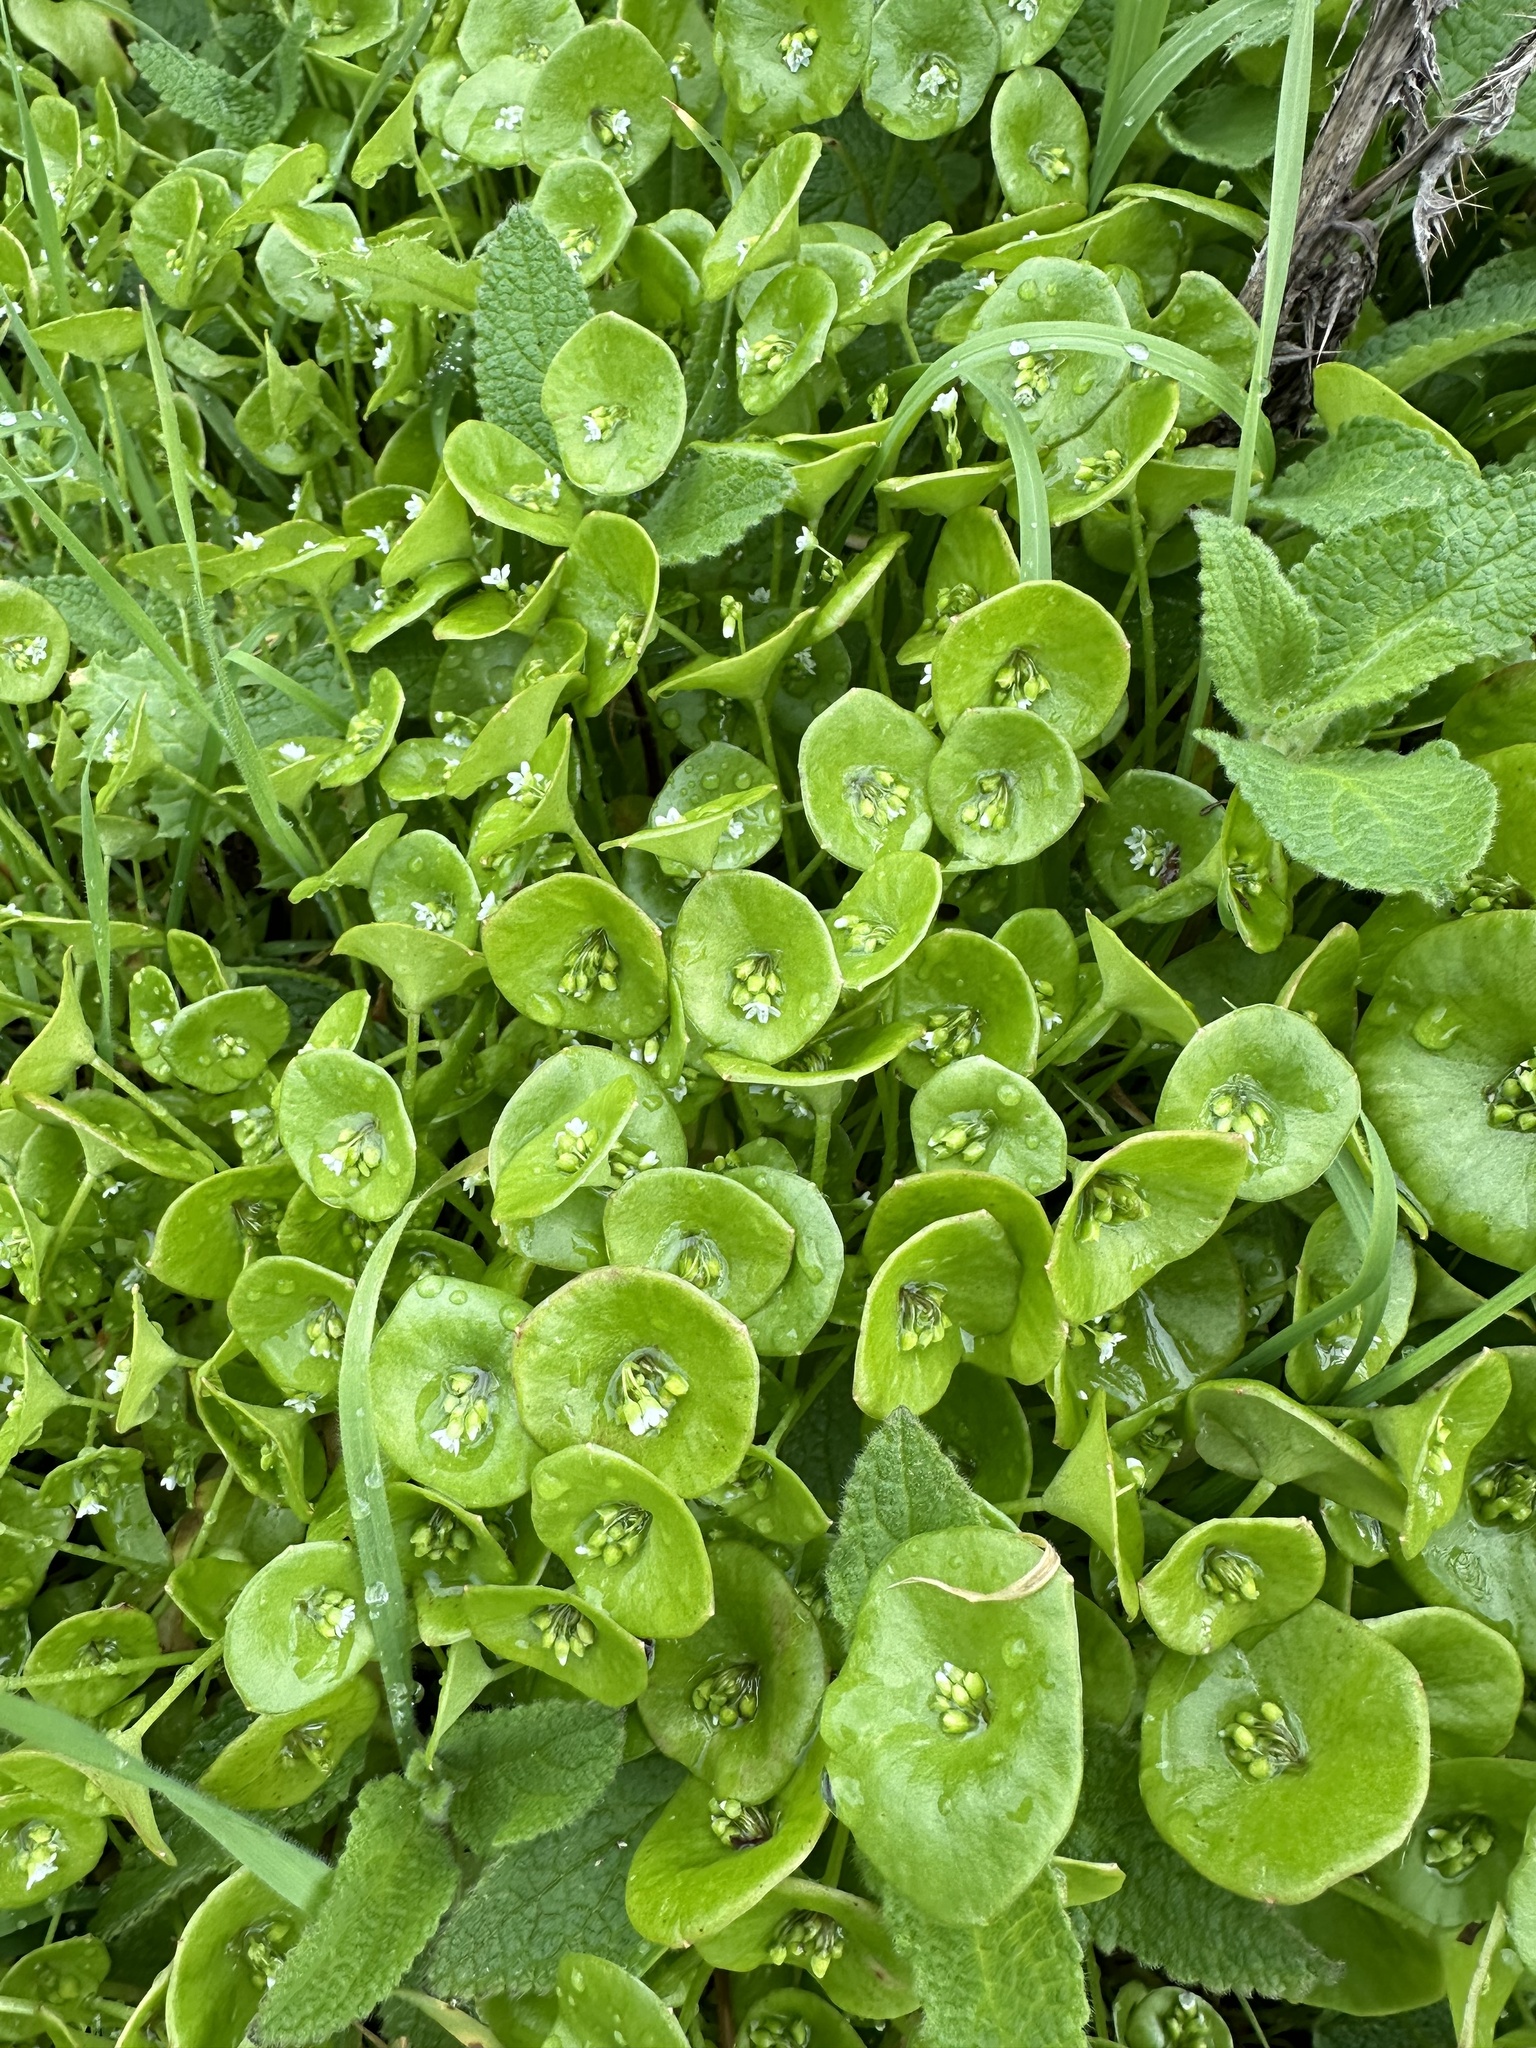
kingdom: Plantae
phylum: Tracheophyta
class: Magnoliopsida
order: Caryophyllales
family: Montiaceae
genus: Claytonia
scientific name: Claytonia perfoliata
